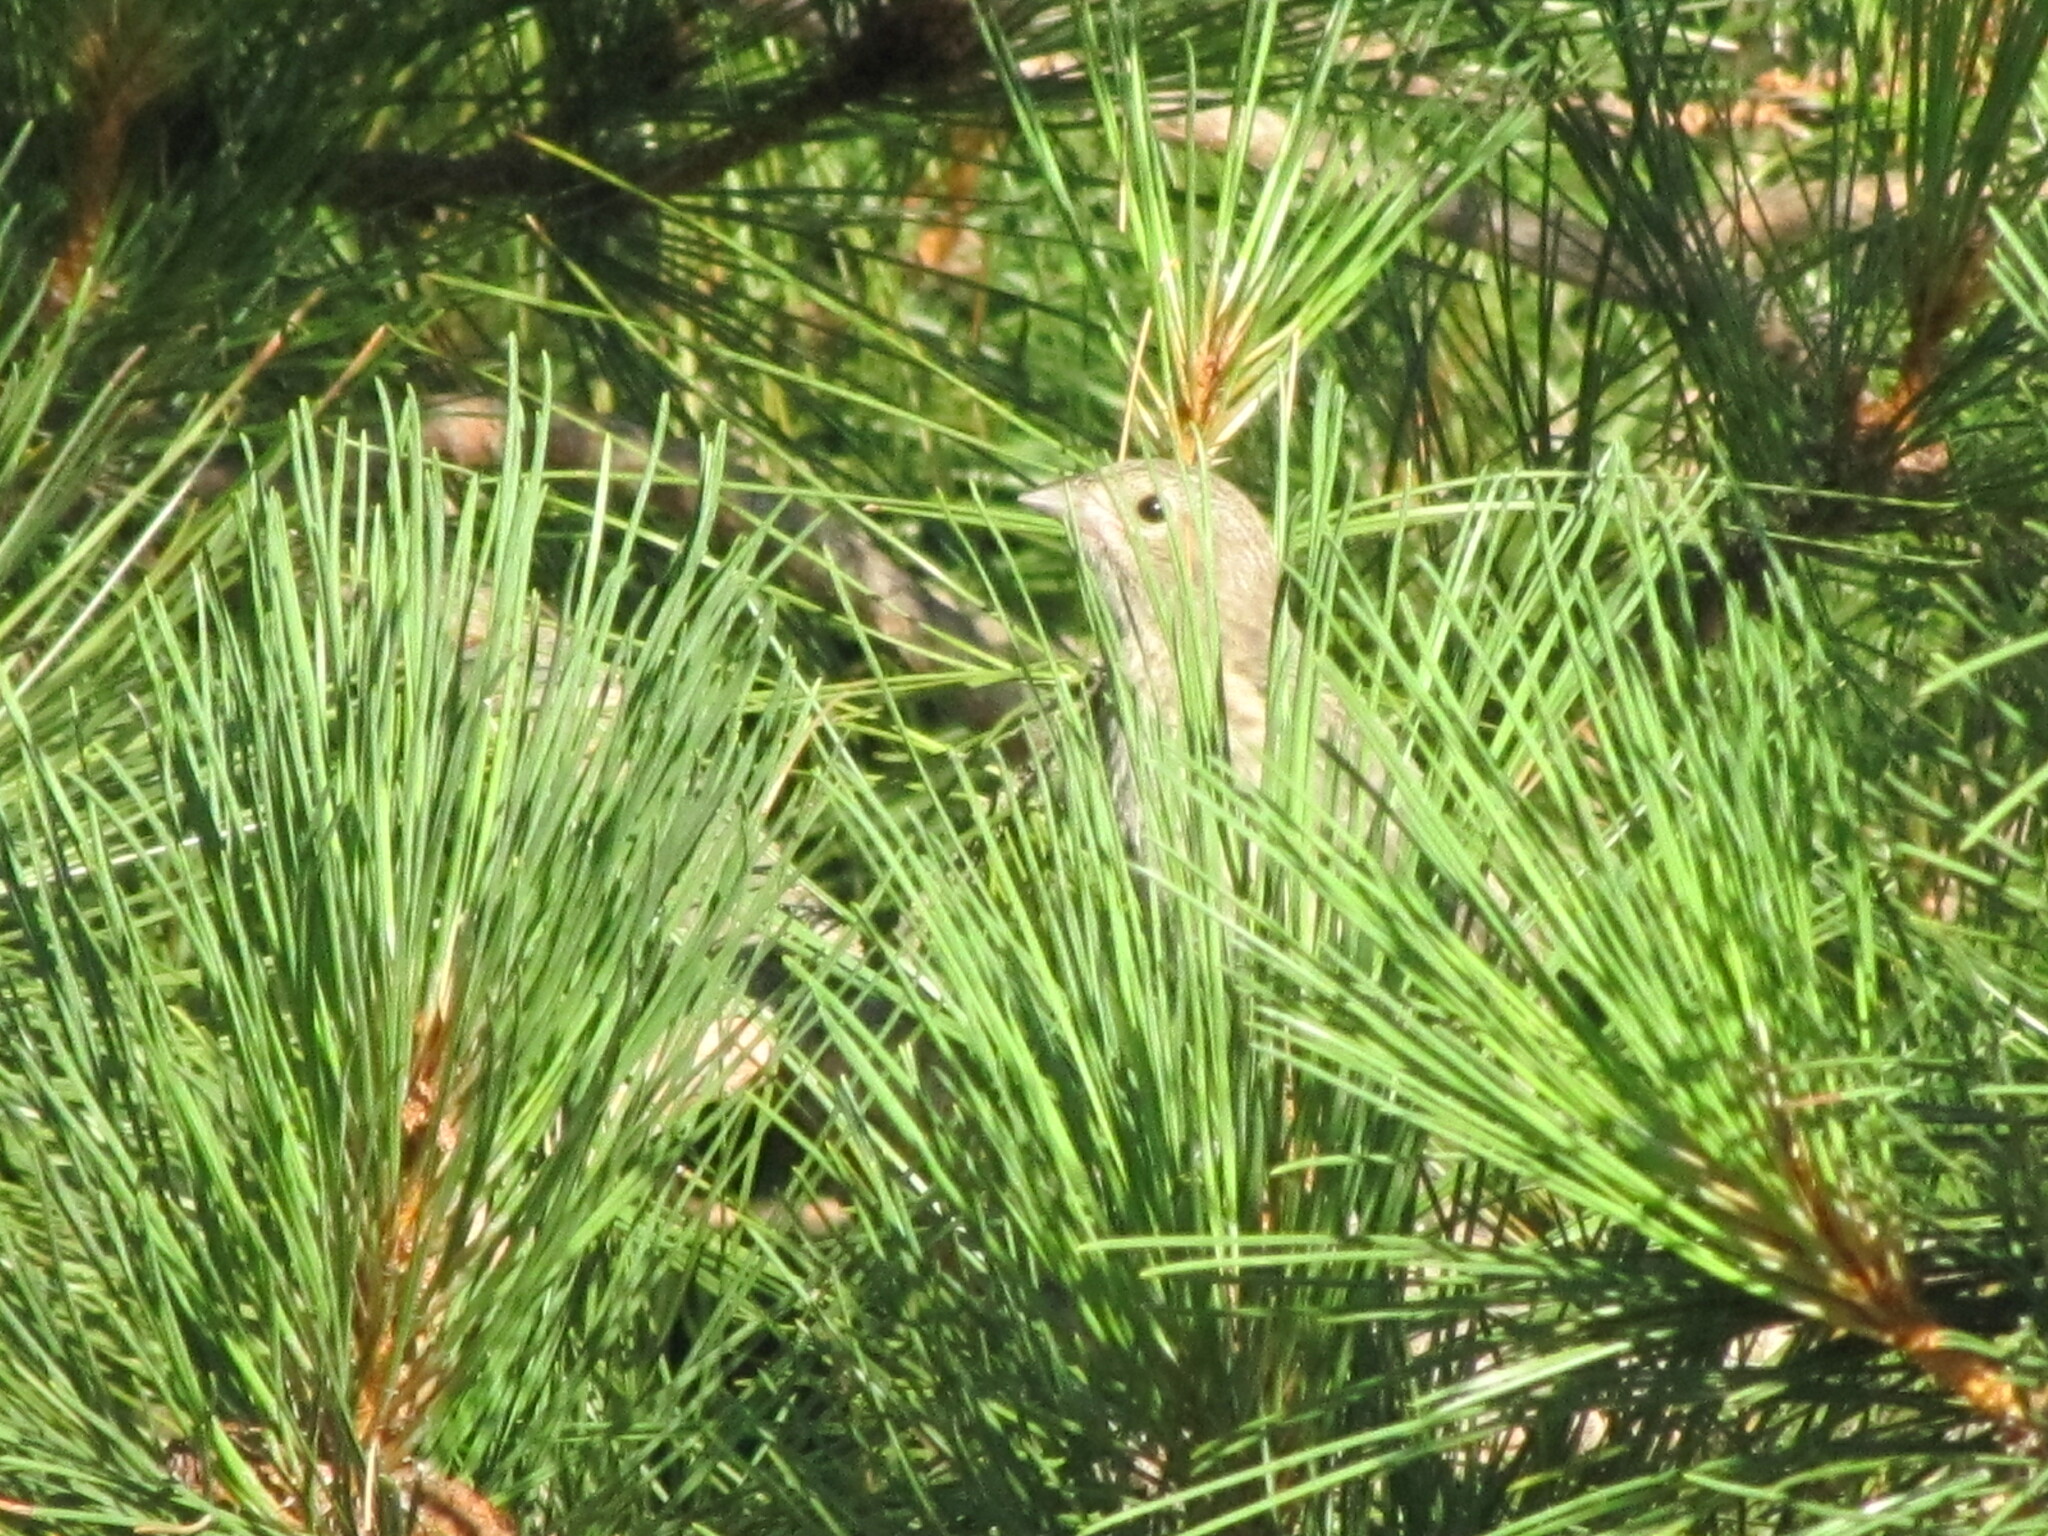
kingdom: Animalia
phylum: Chordata
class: Aves
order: Passeriformes
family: Icteridae
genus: Molothrus
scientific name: Molothrus ater
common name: Brown-headed cowbird
